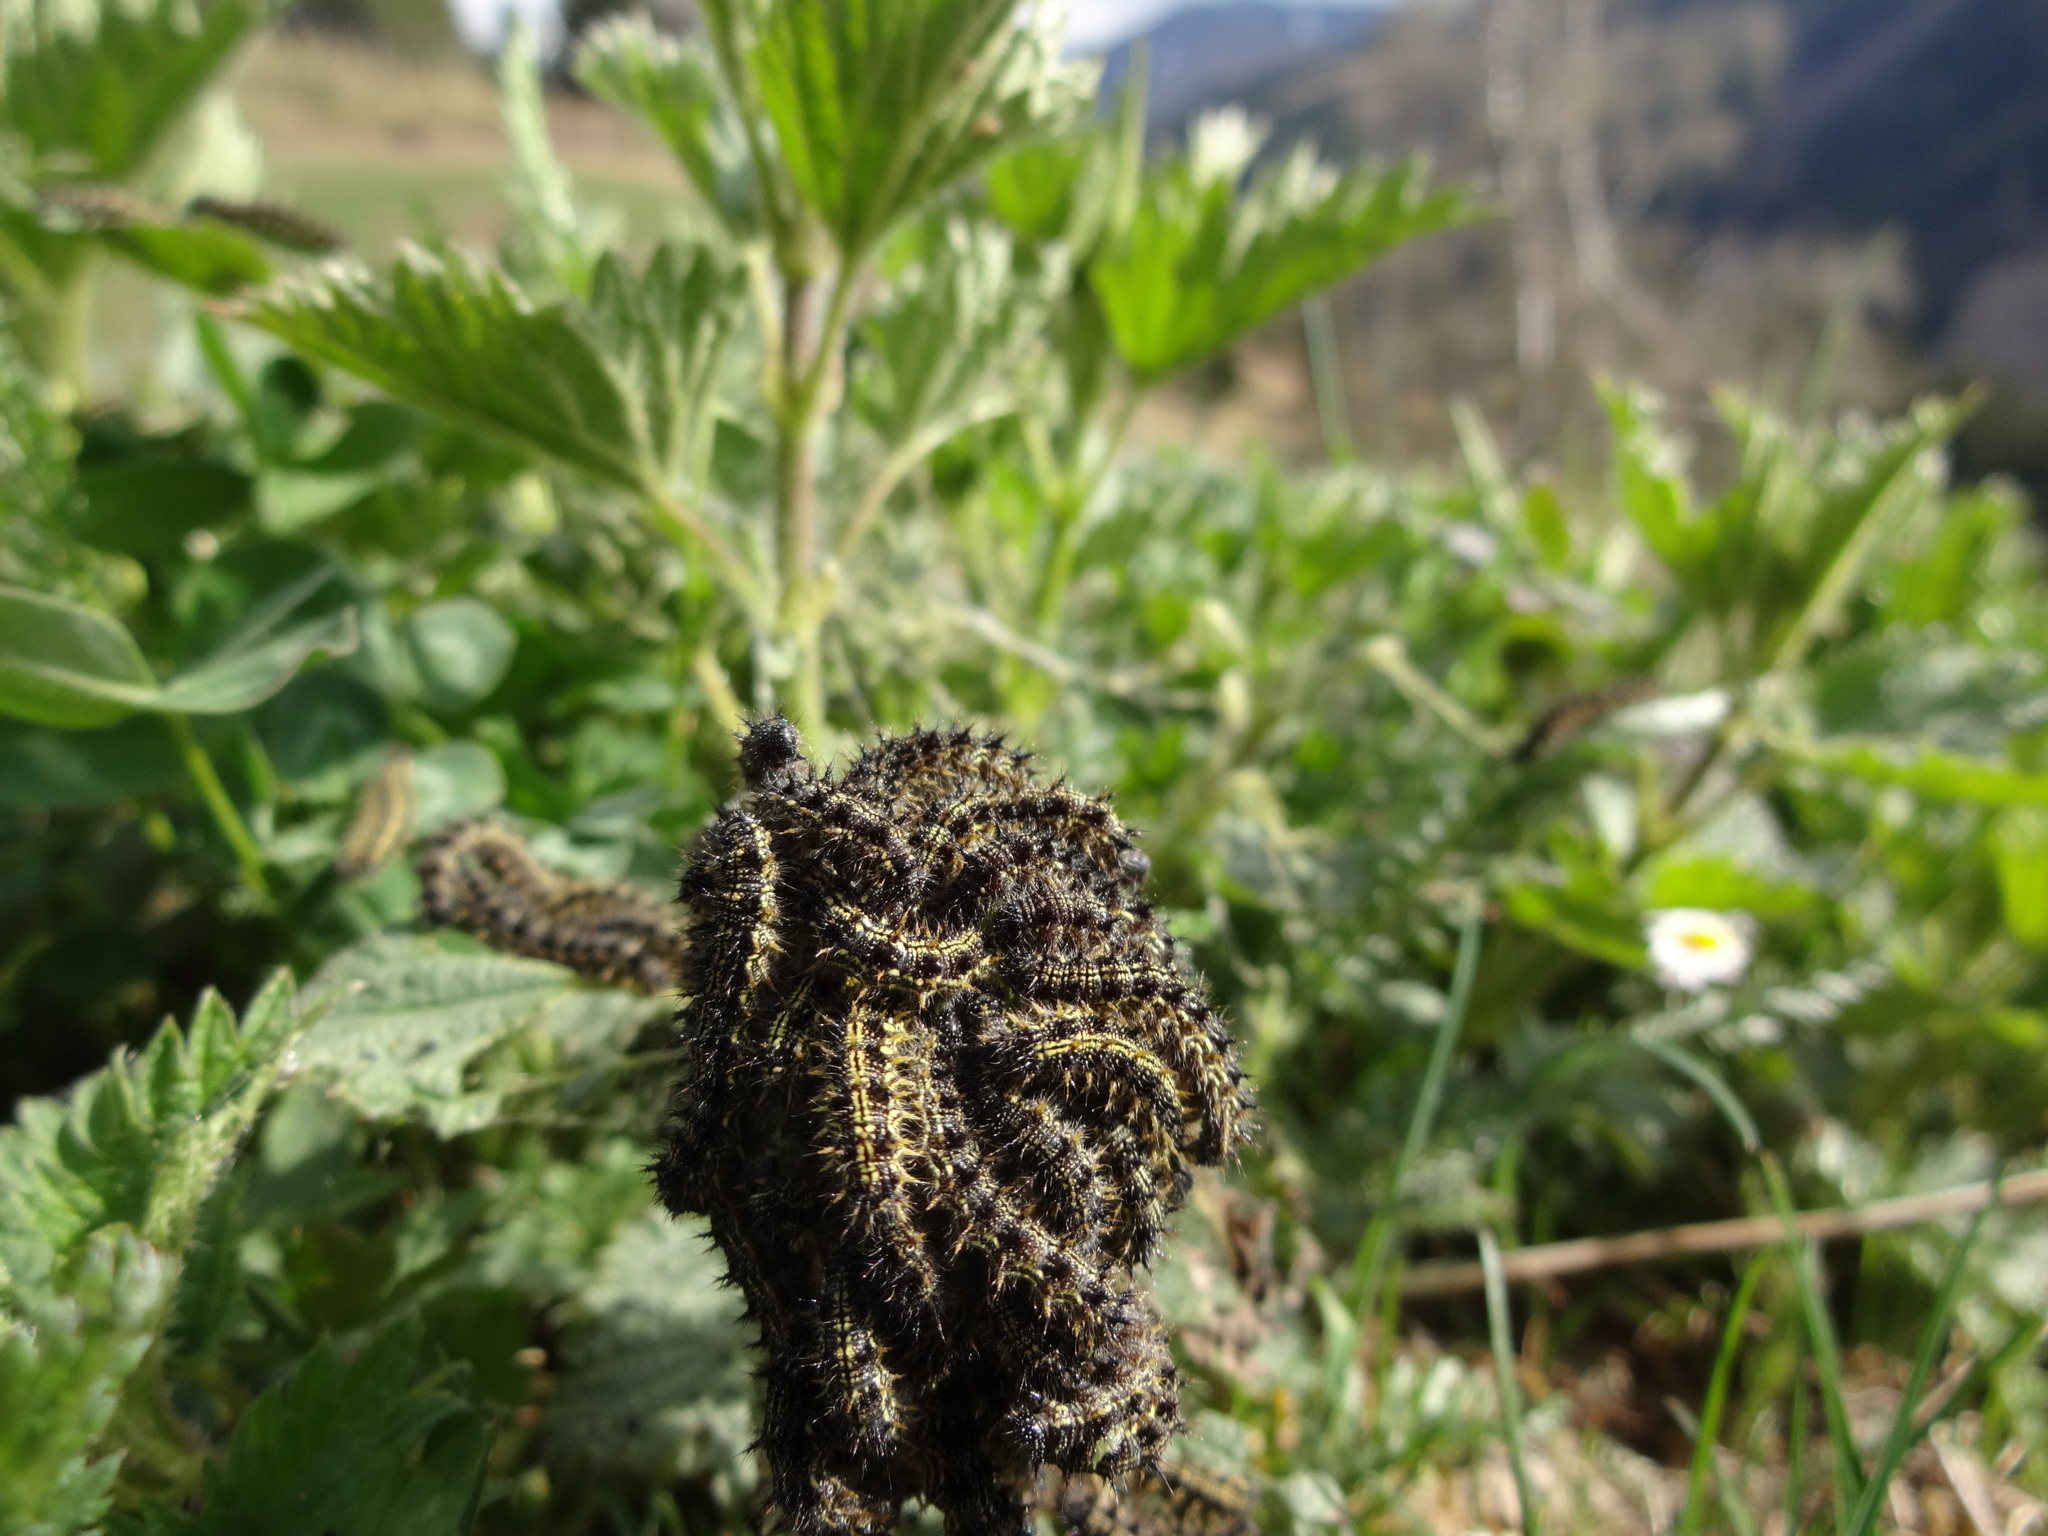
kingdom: Animalia
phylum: Arthropoda
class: Insecta
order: Lepidoptera
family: Nymphalidae
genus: Aglais
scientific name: Aglais urticae
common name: Small tortoiseshell
